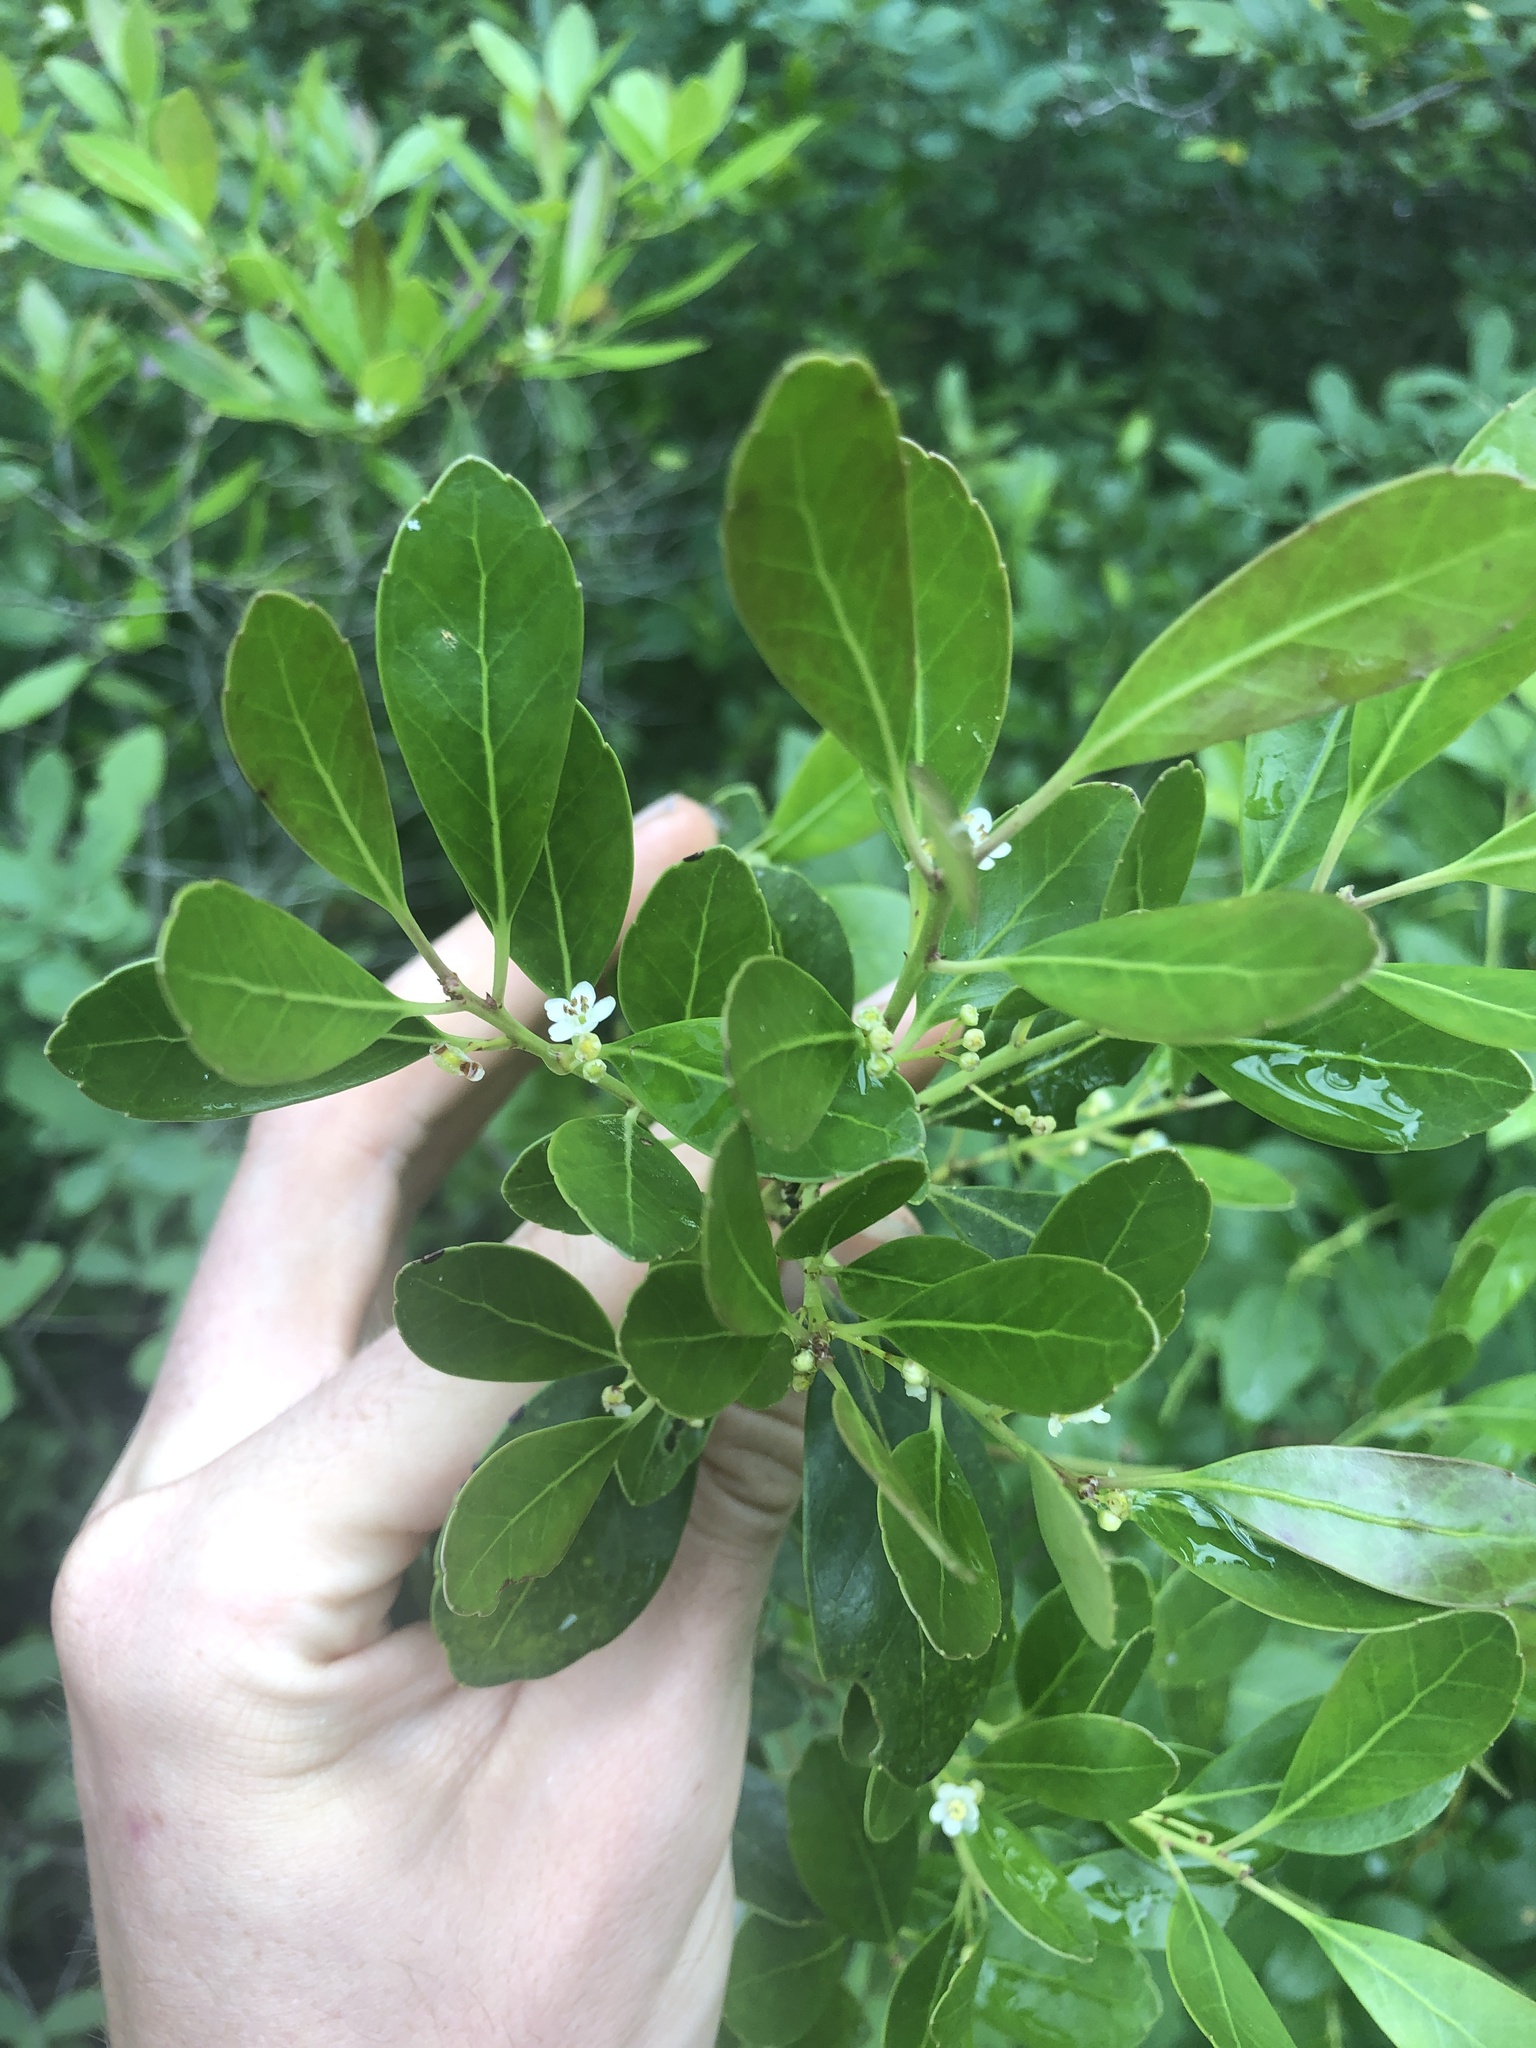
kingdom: Plantae
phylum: Tracheophyta
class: Magnoliopsida
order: Aquifoliales
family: Aquifoliaceae
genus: Ilex
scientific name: Ilex glabra
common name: Bitter gallberry
